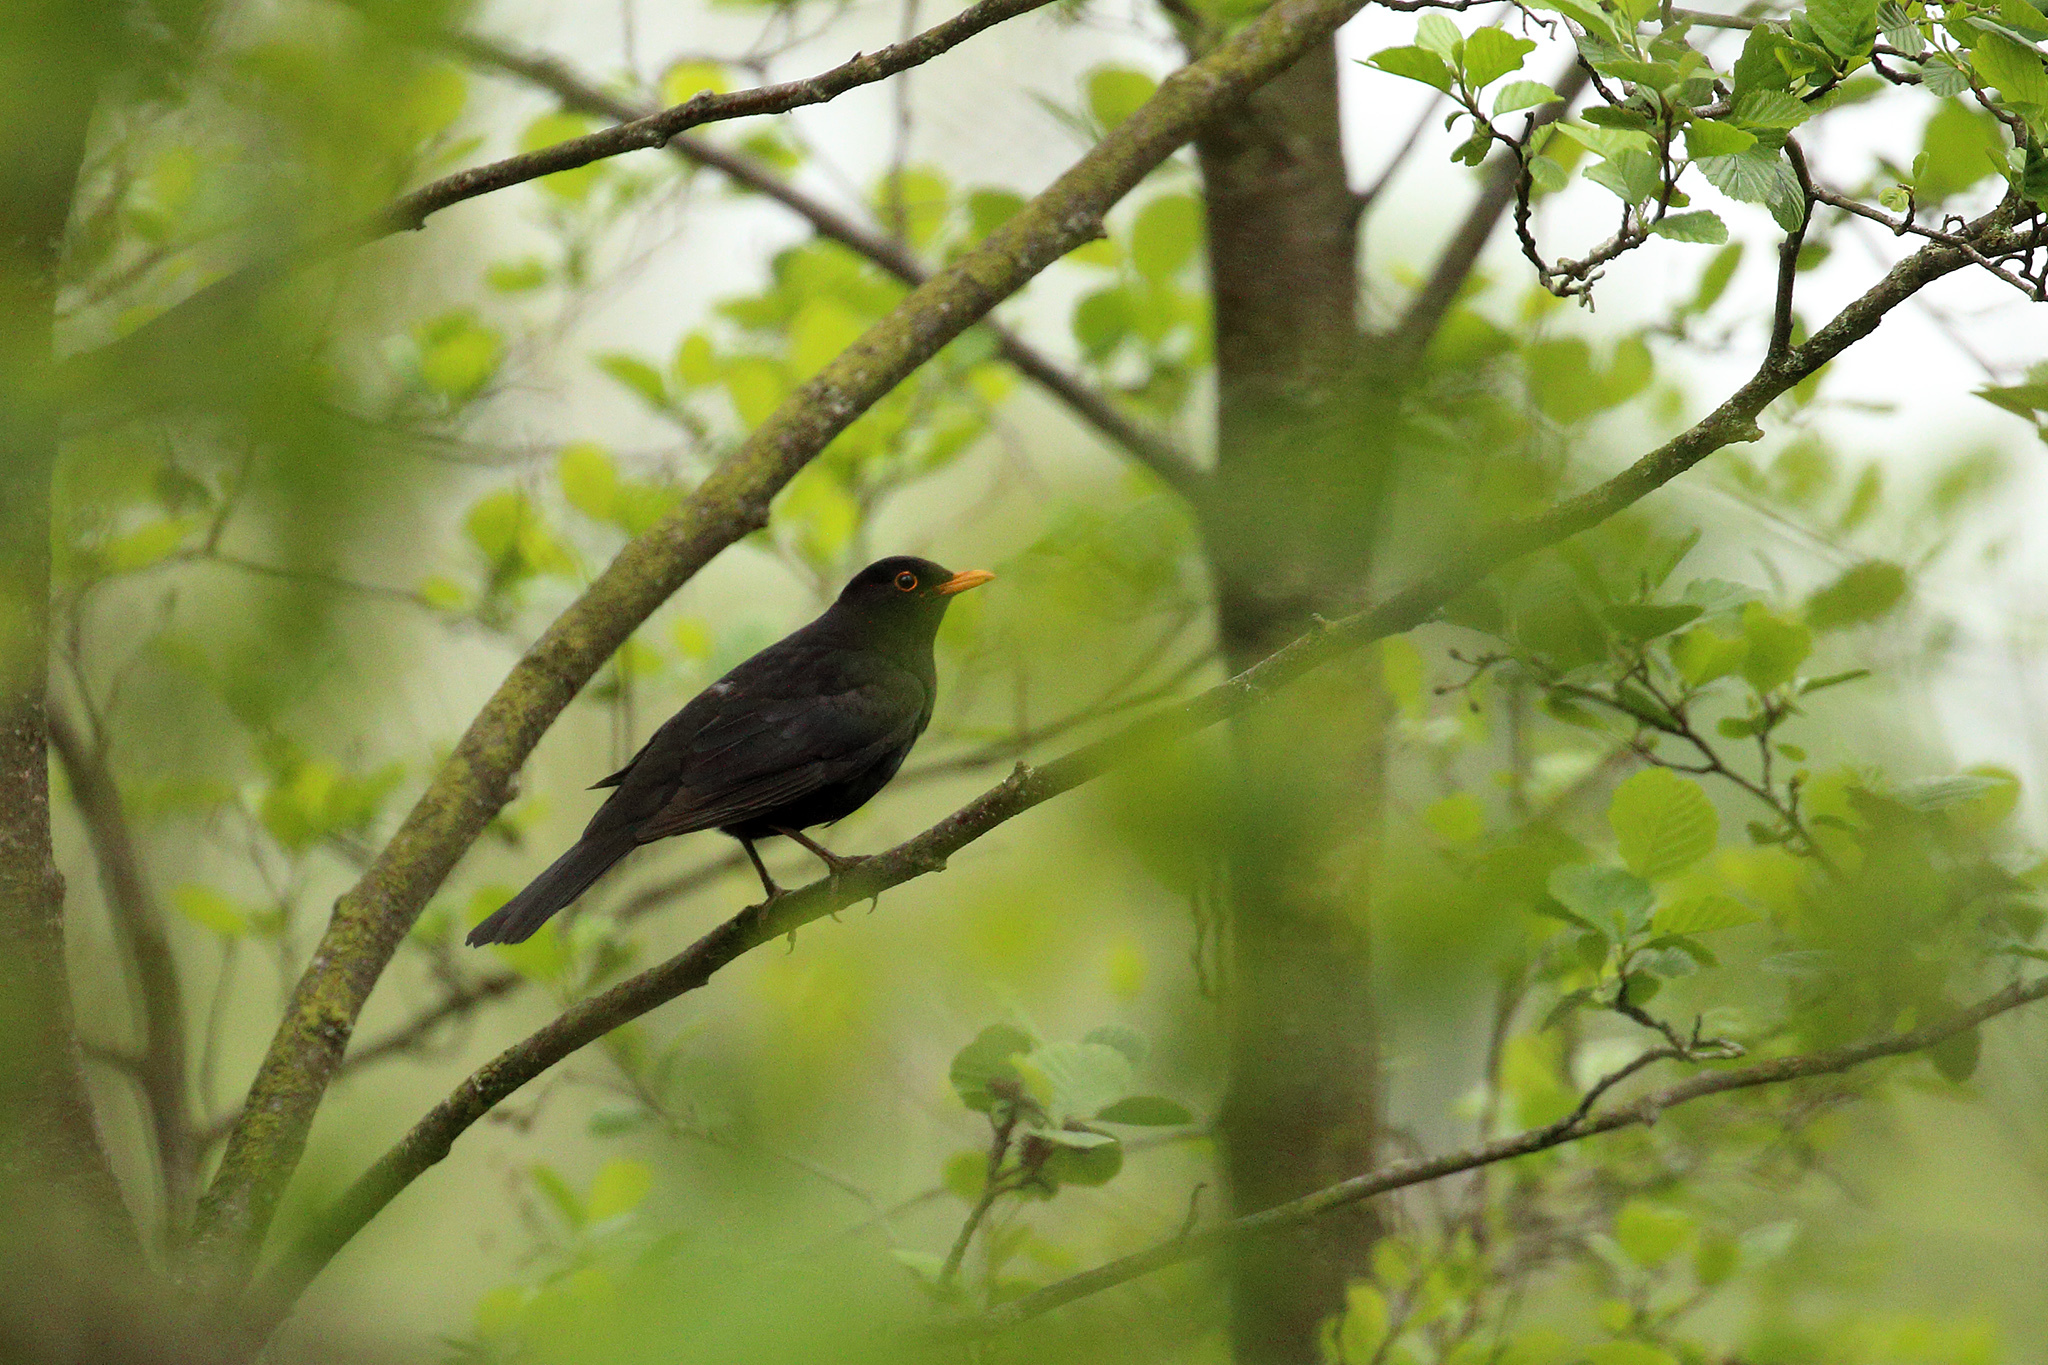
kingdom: Animalia
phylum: Chordata
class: Aves
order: Passeriformes
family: Turdidae
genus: Turdus
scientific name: Turdus merula
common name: Common blackbird
